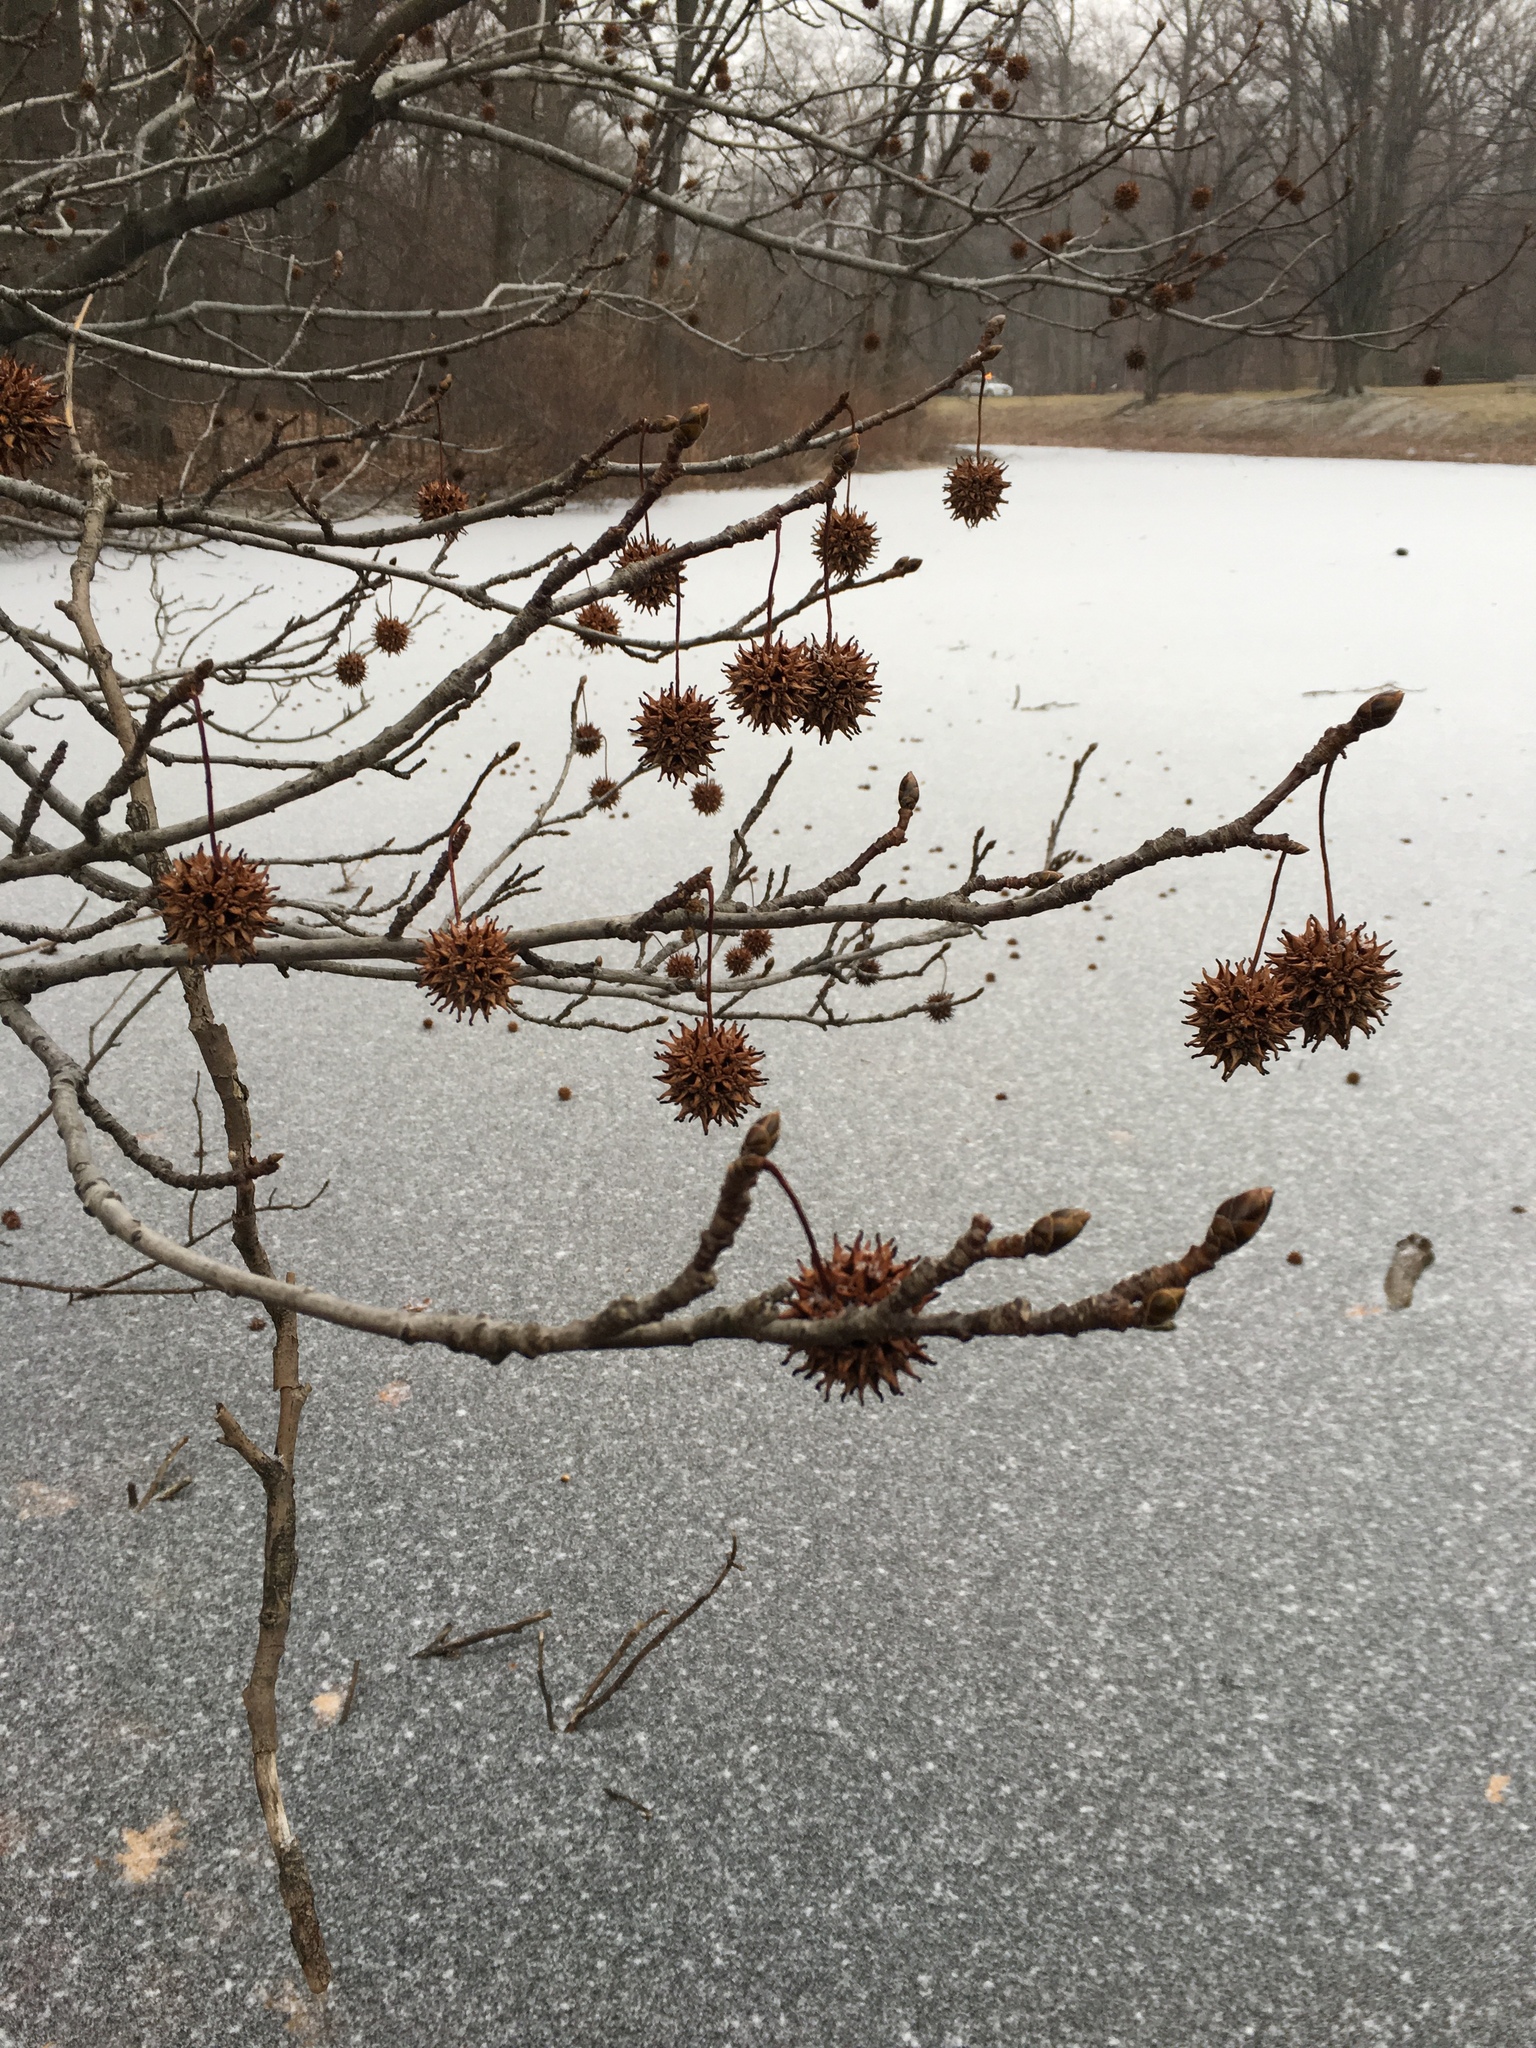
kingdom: Plantae
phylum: Tracheophyta
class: Magnoliopsida
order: Saxifragales
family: Altingiaceae
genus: Liquidambar
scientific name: Liquidambar styraciflua
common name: Sweet gum
